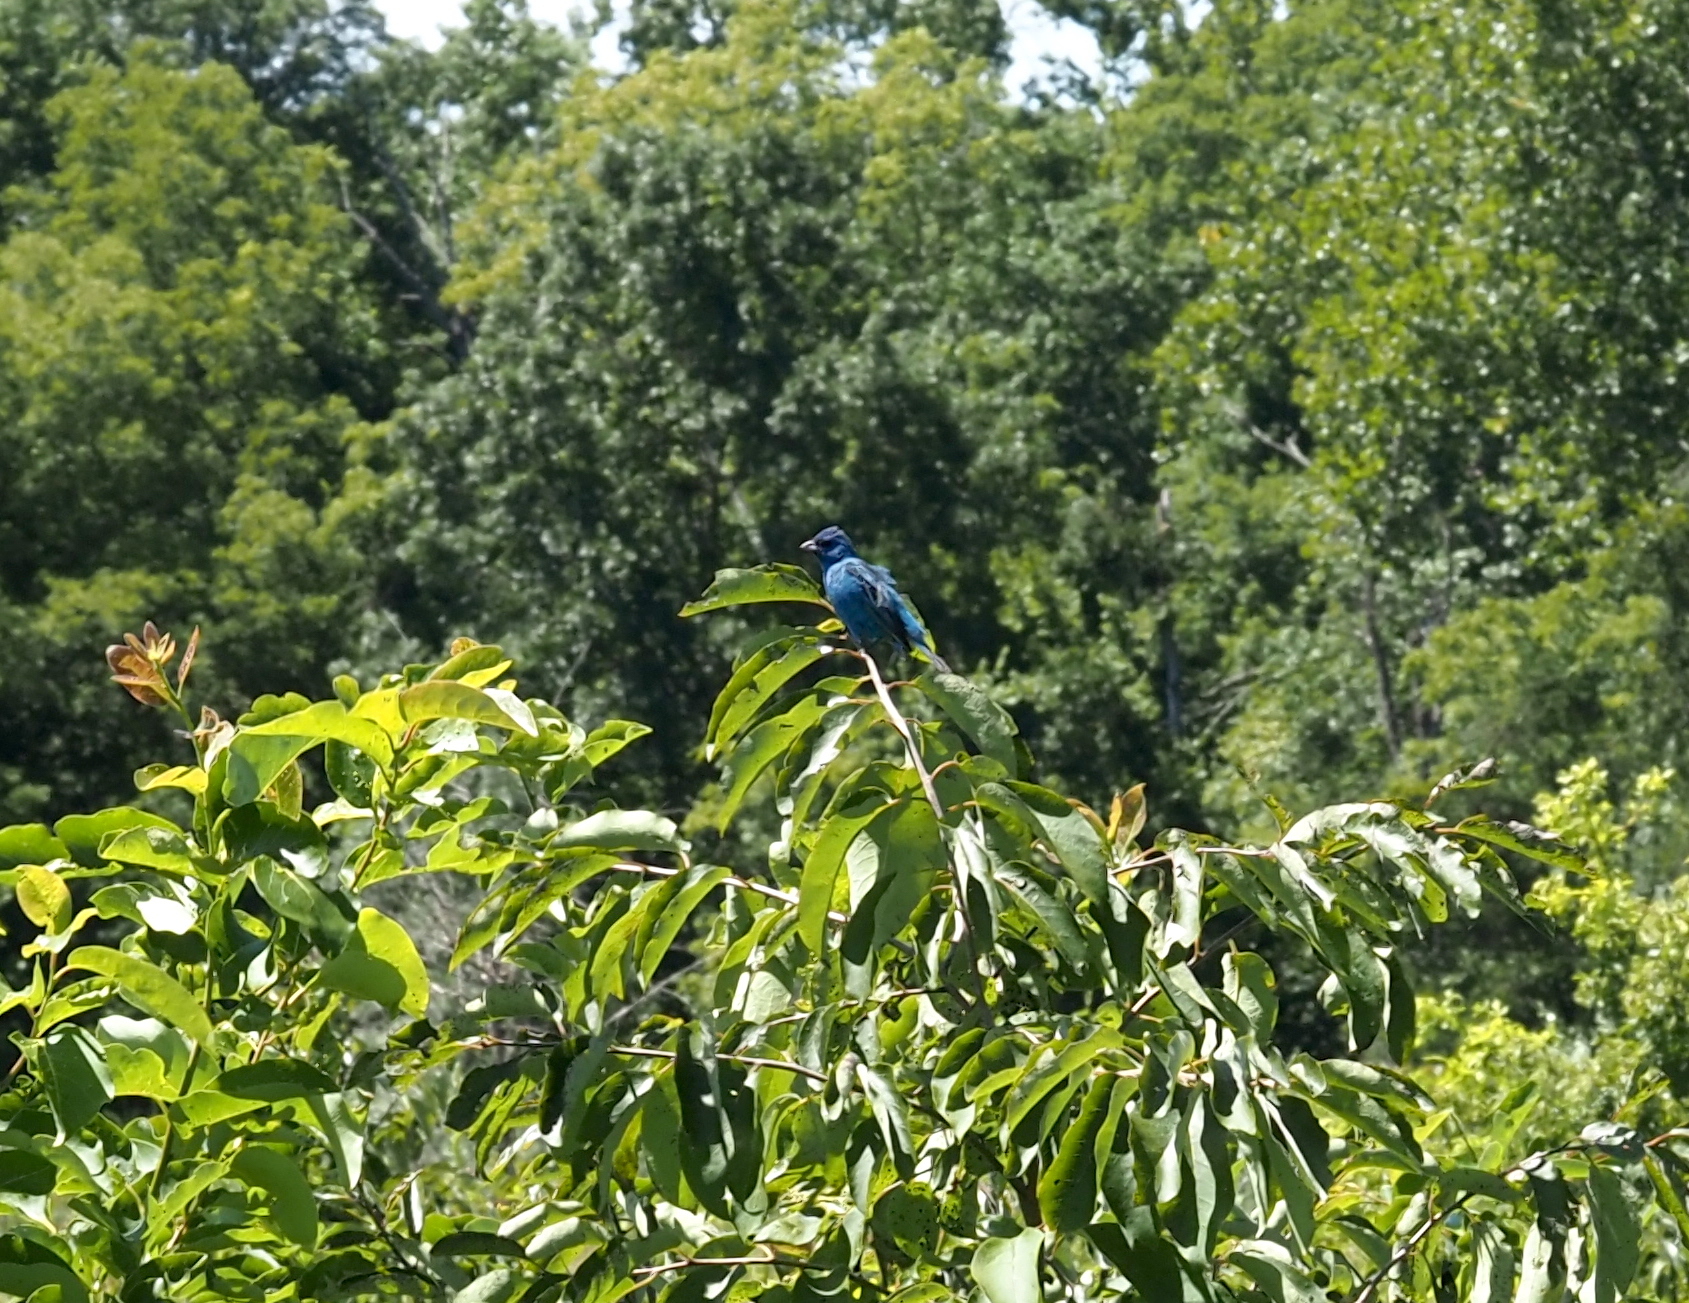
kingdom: Animalia
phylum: Chordata
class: Aves
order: Passeriformes
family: Cardinalidae
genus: Passerina
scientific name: Passerina cyanea
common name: Indigo bunting
